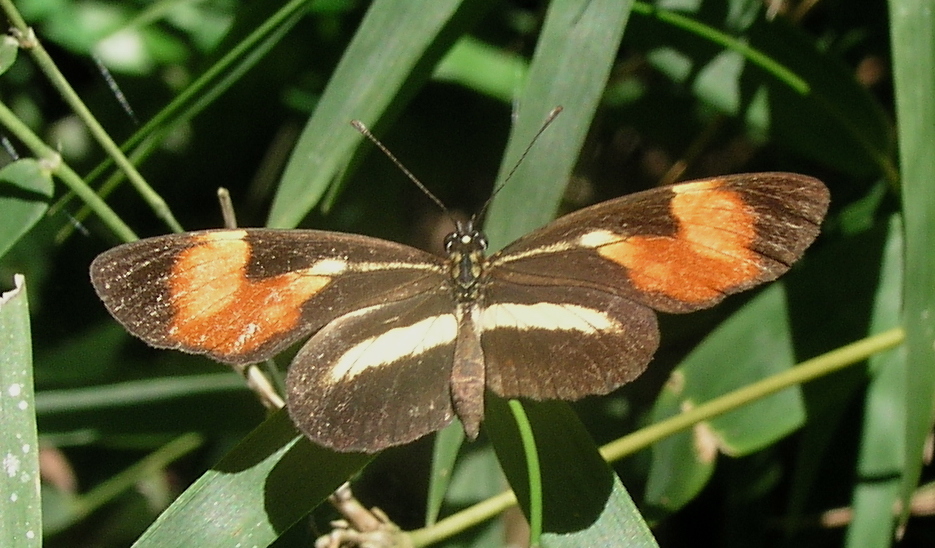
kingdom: Animalia
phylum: Arthropoda
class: Insecta
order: Lepidoptera
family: Nymphalidae
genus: Eresia
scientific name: Eresia lansdorfi
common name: Lansdorf's crescent
